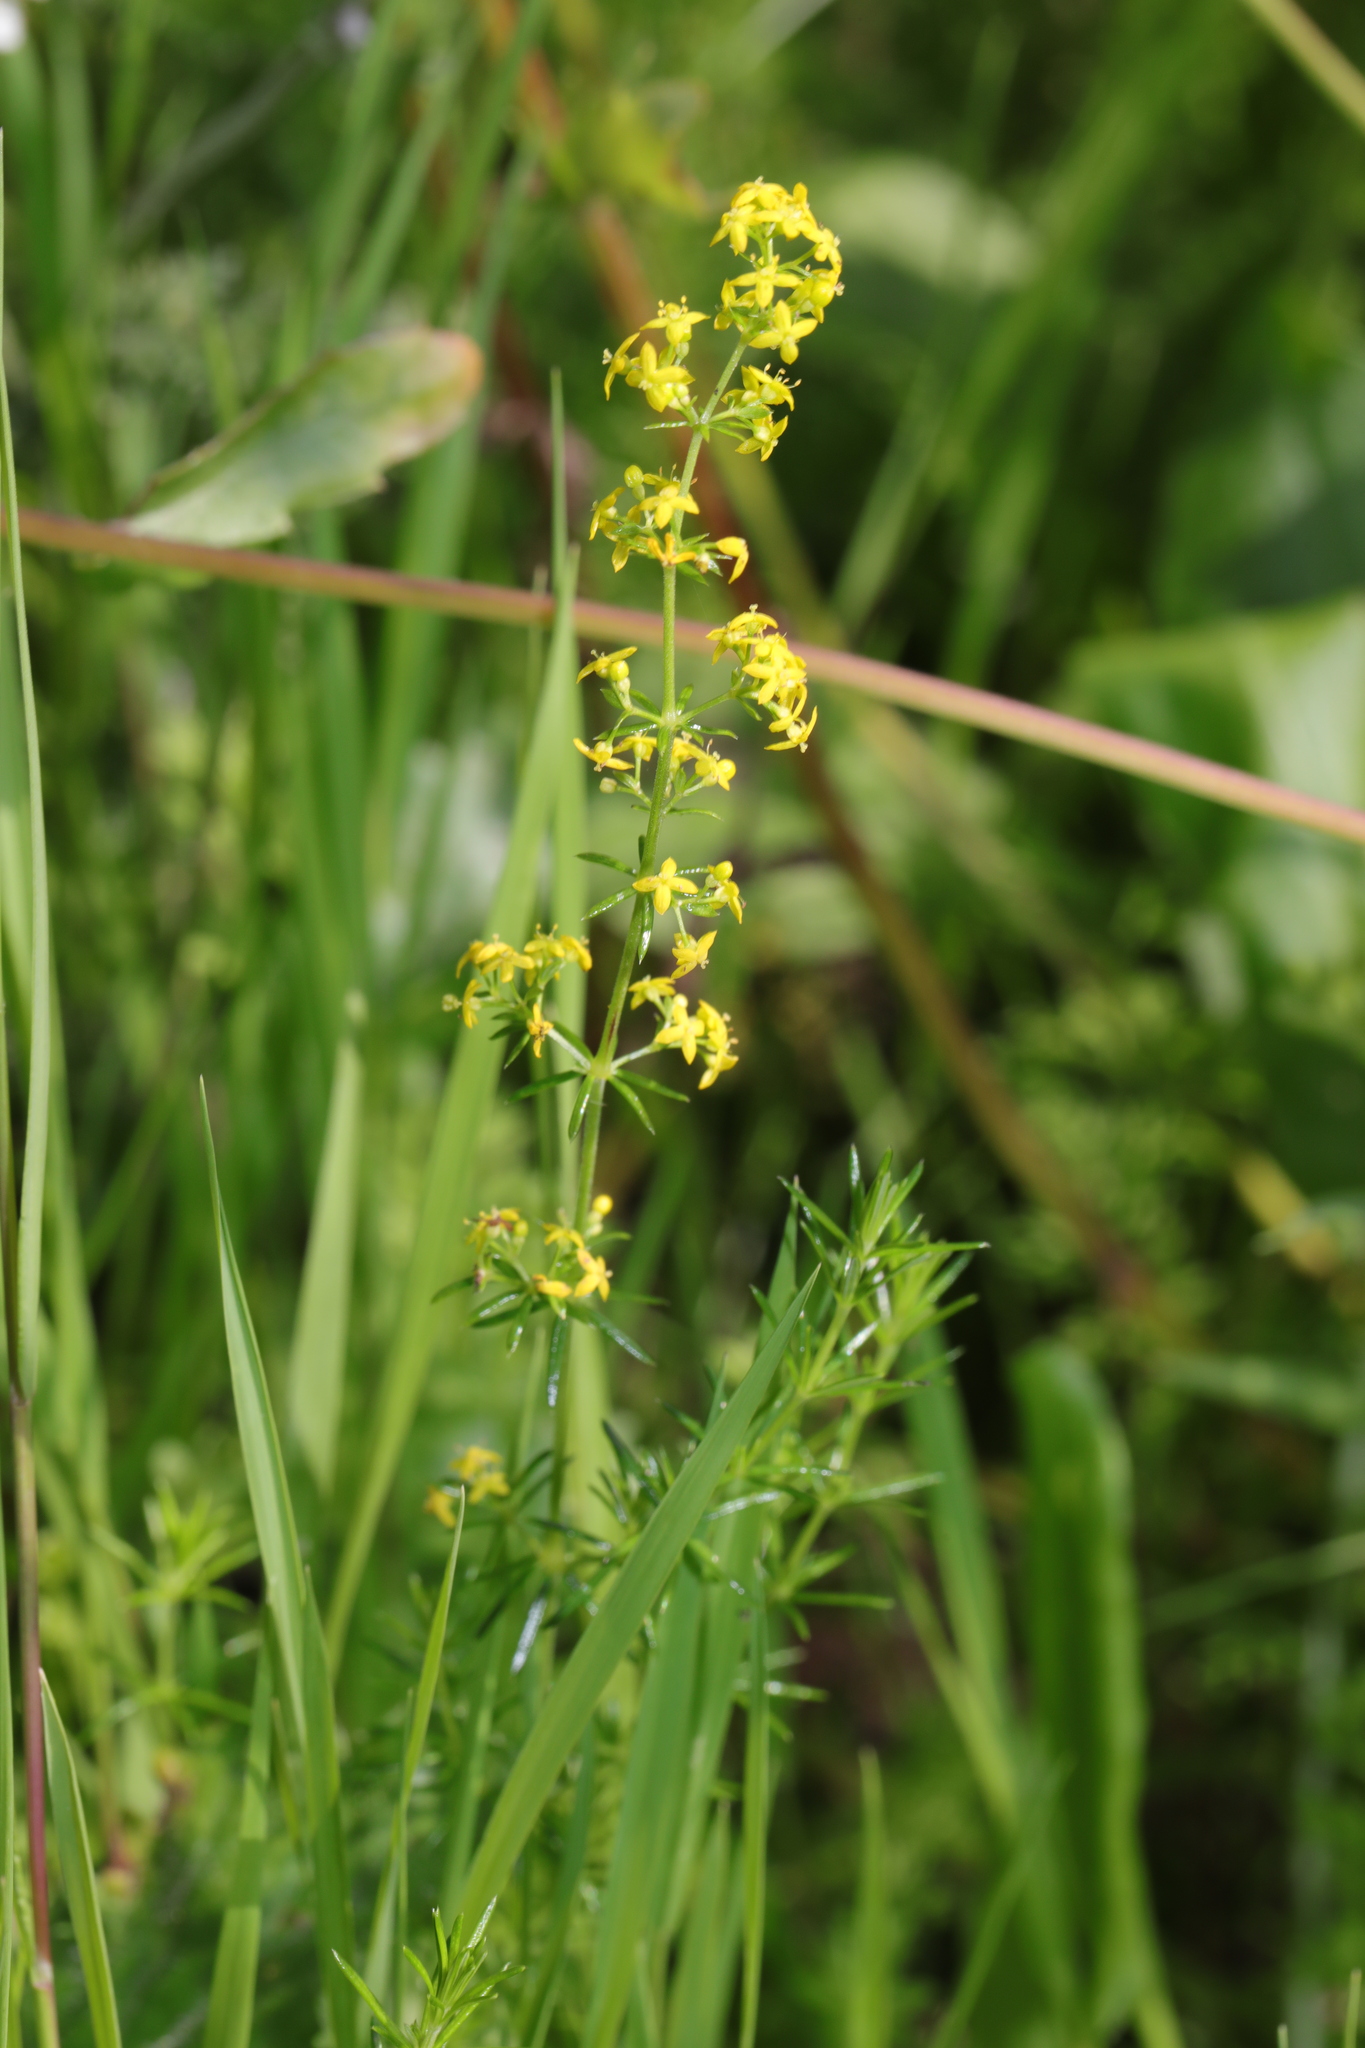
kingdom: Plantae
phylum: Tracheophyta
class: Magnoliopsida
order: Gentianales
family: Rubiaceae
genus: Galium
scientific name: Galium verum
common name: Lady's bedstraw
